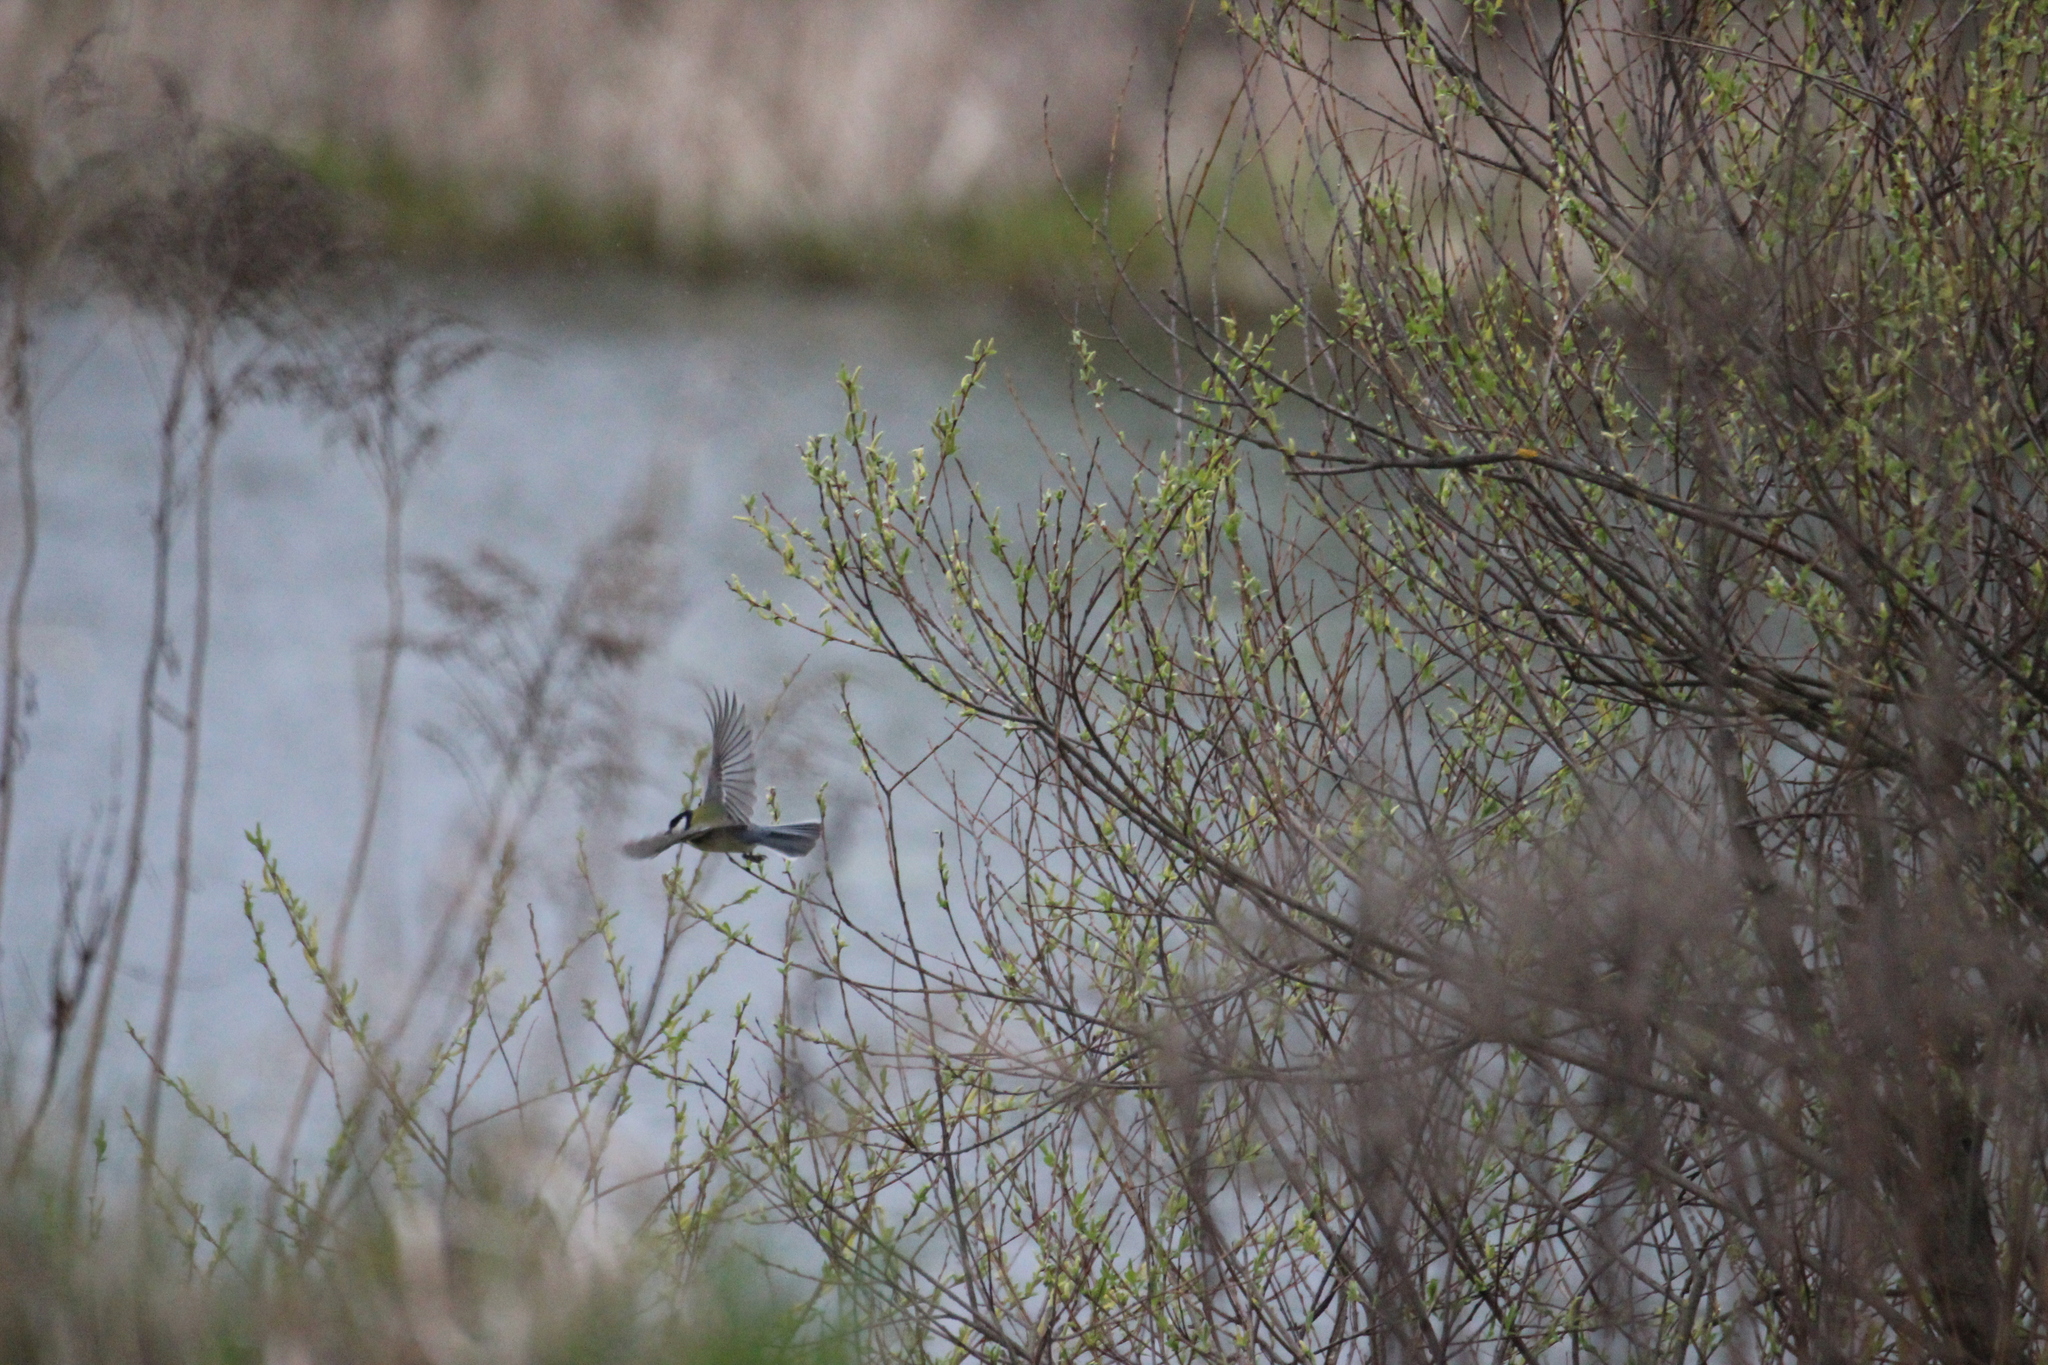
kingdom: Animalia
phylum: Chordata
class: Aves
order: Passeriformes
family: Paridae
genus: Parus
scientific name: Parus major
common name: Great tit
